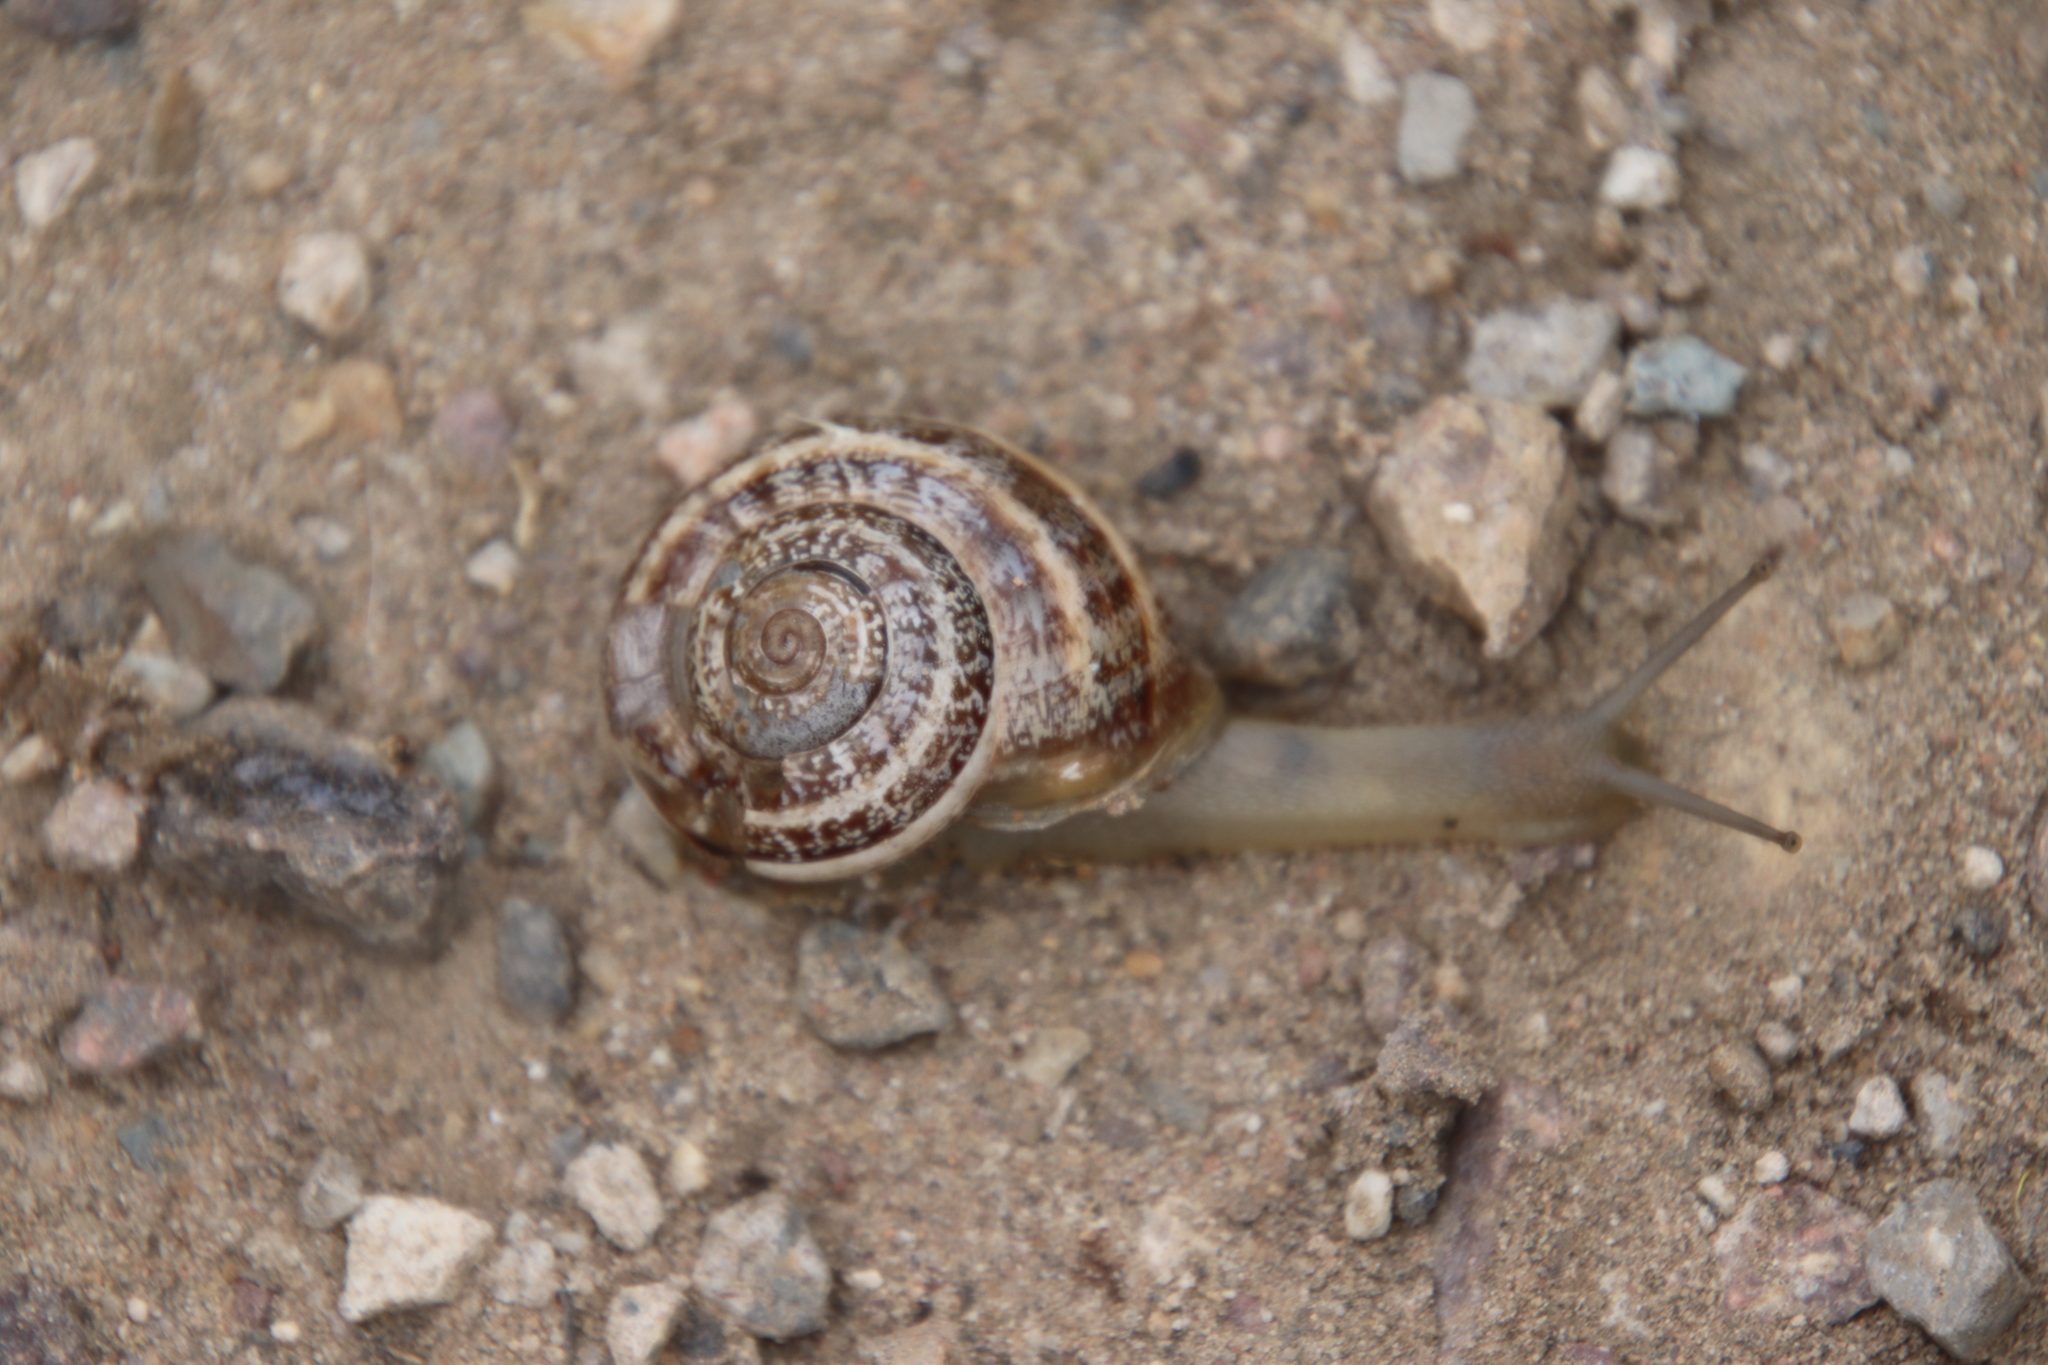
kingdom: Animalia
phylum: Mollusca
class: Gastropoda
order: Stylommatophora
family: Helicidae
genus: Otala
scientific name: Otala lactea
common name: Milk snail
